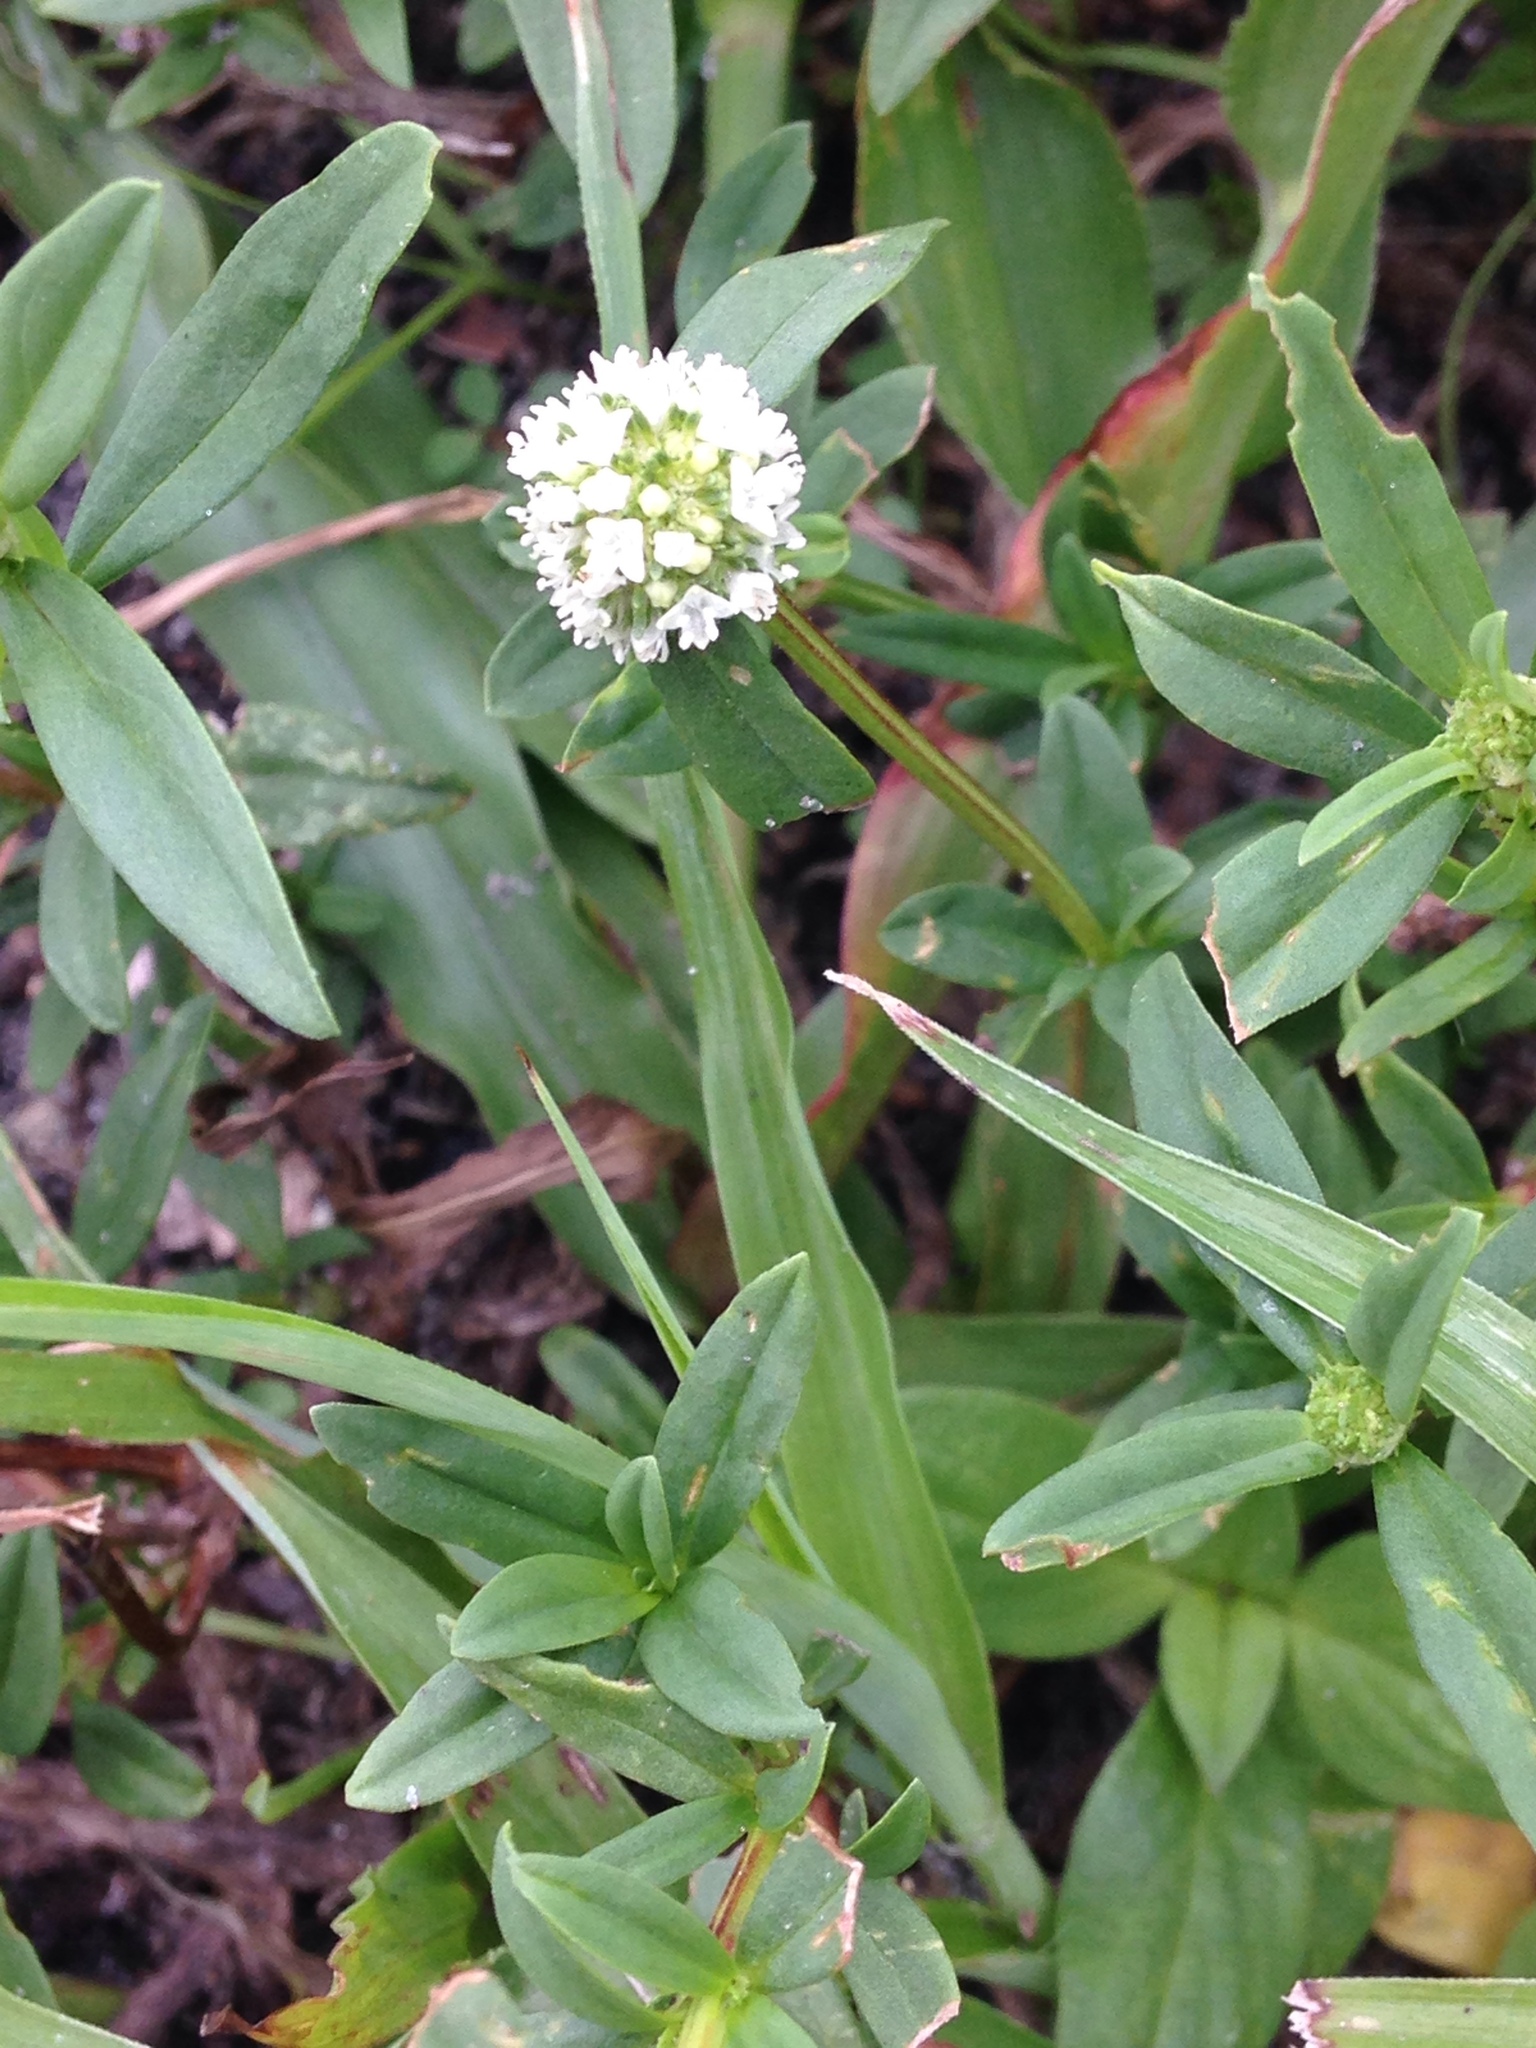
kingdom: Plantae
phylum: Tracheophyta
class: Magnoliopsida
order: Gentianales
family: Rubiaceae
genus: Spermacoce
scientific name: Spermacoce verticillata
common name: Shrubby false buttonweed
